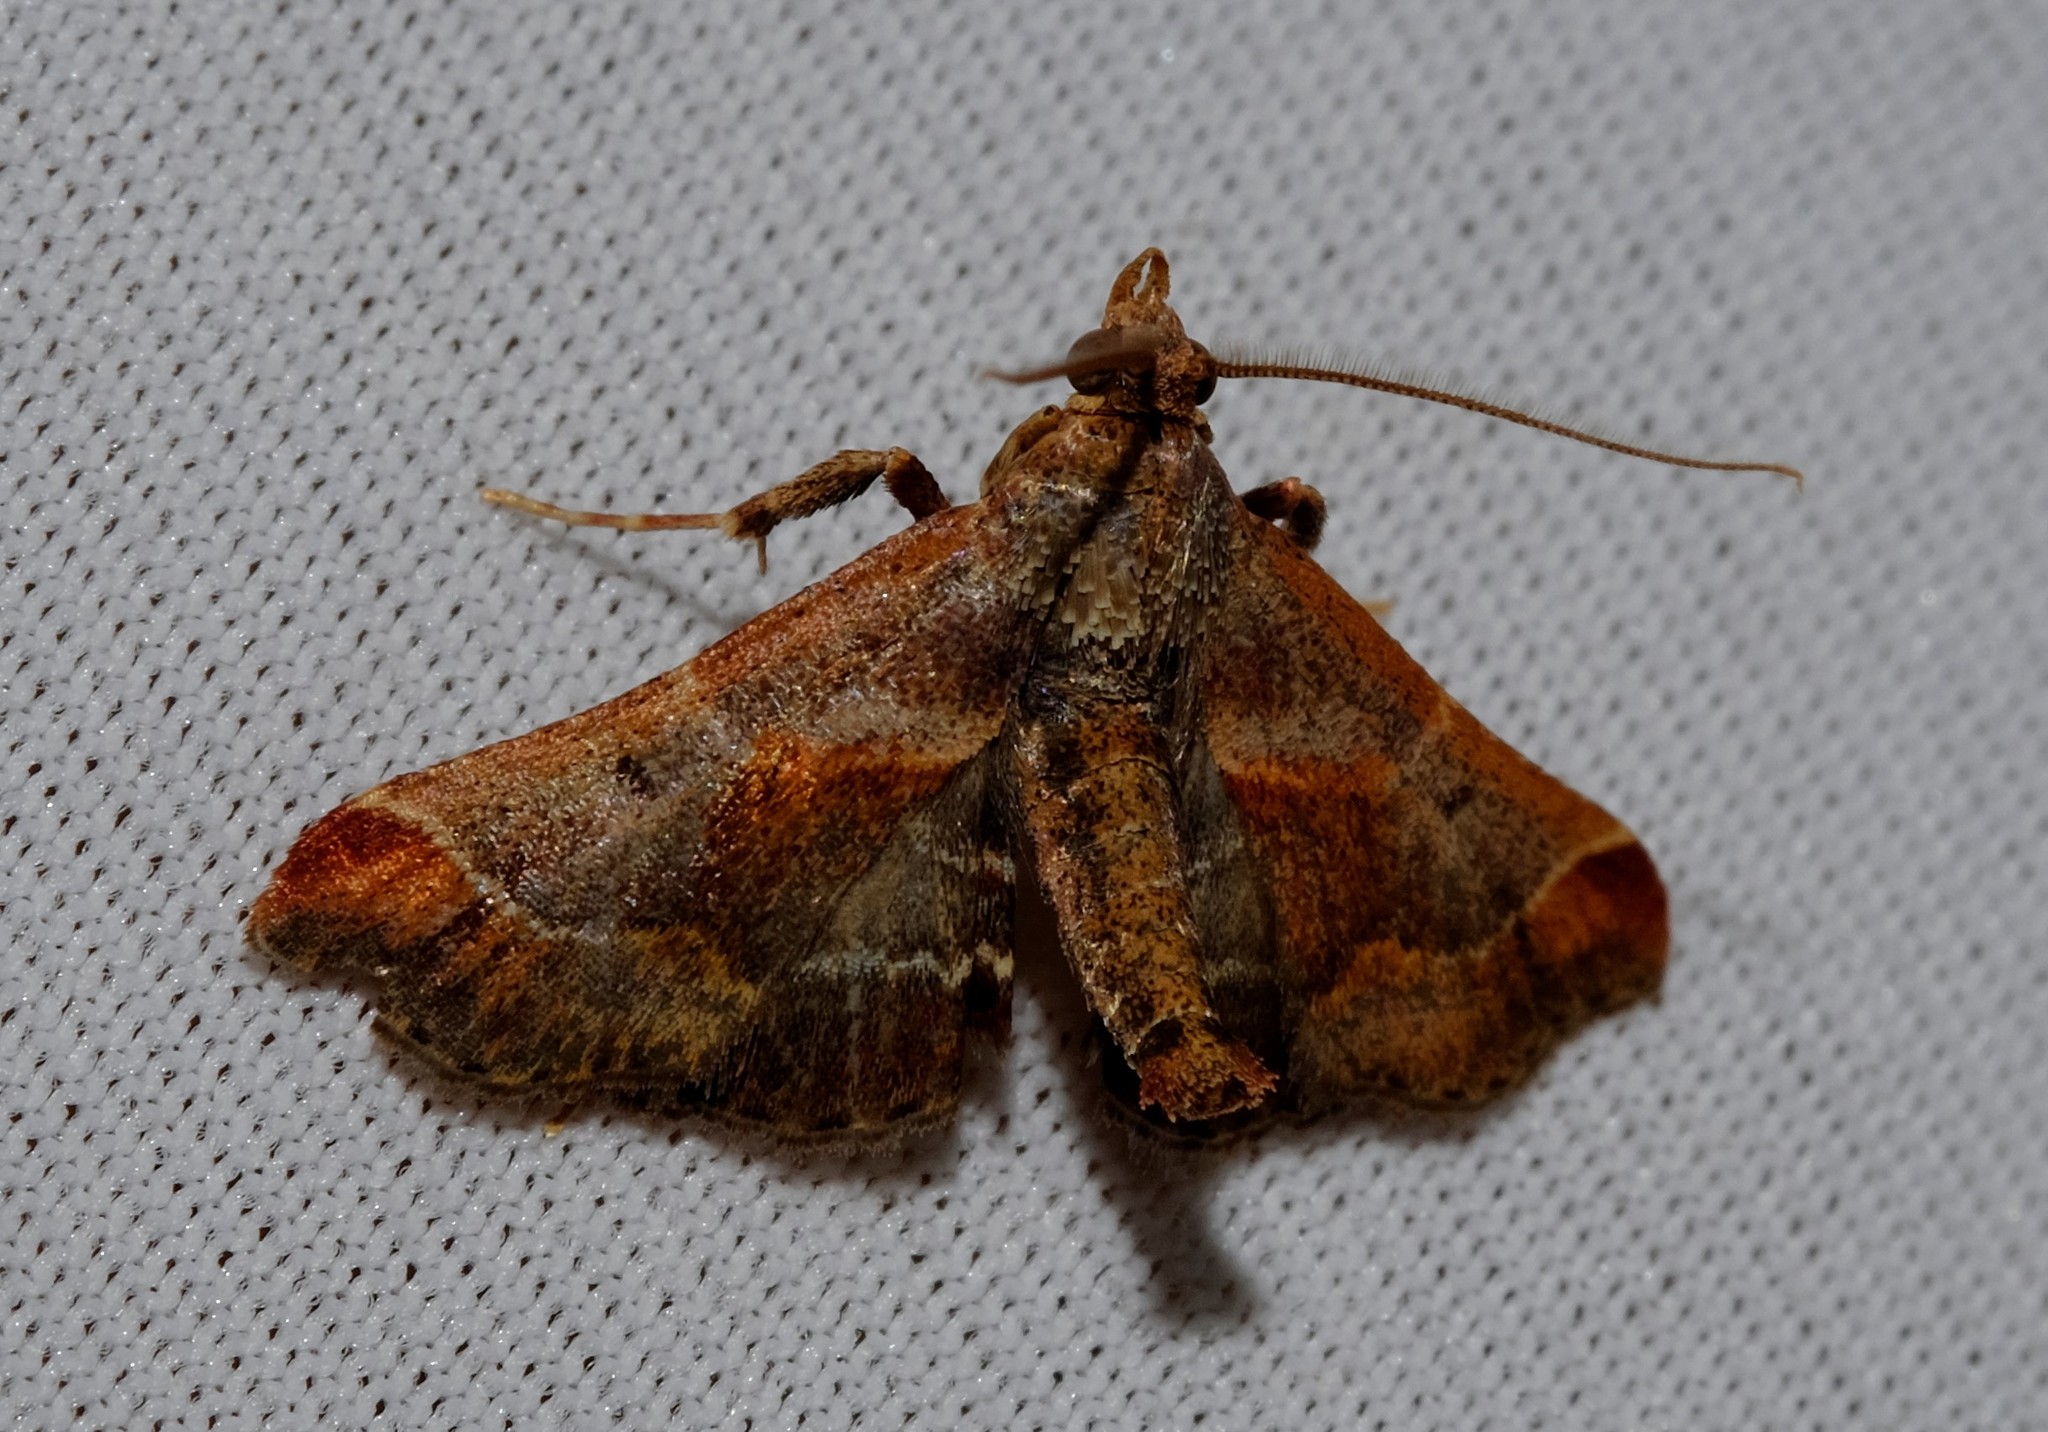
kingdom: Animalia
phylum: Arthropoda
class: Insecta
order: Lepidoptera
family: Pyralidae
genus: Gauna
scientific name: Gauna aegusalis
